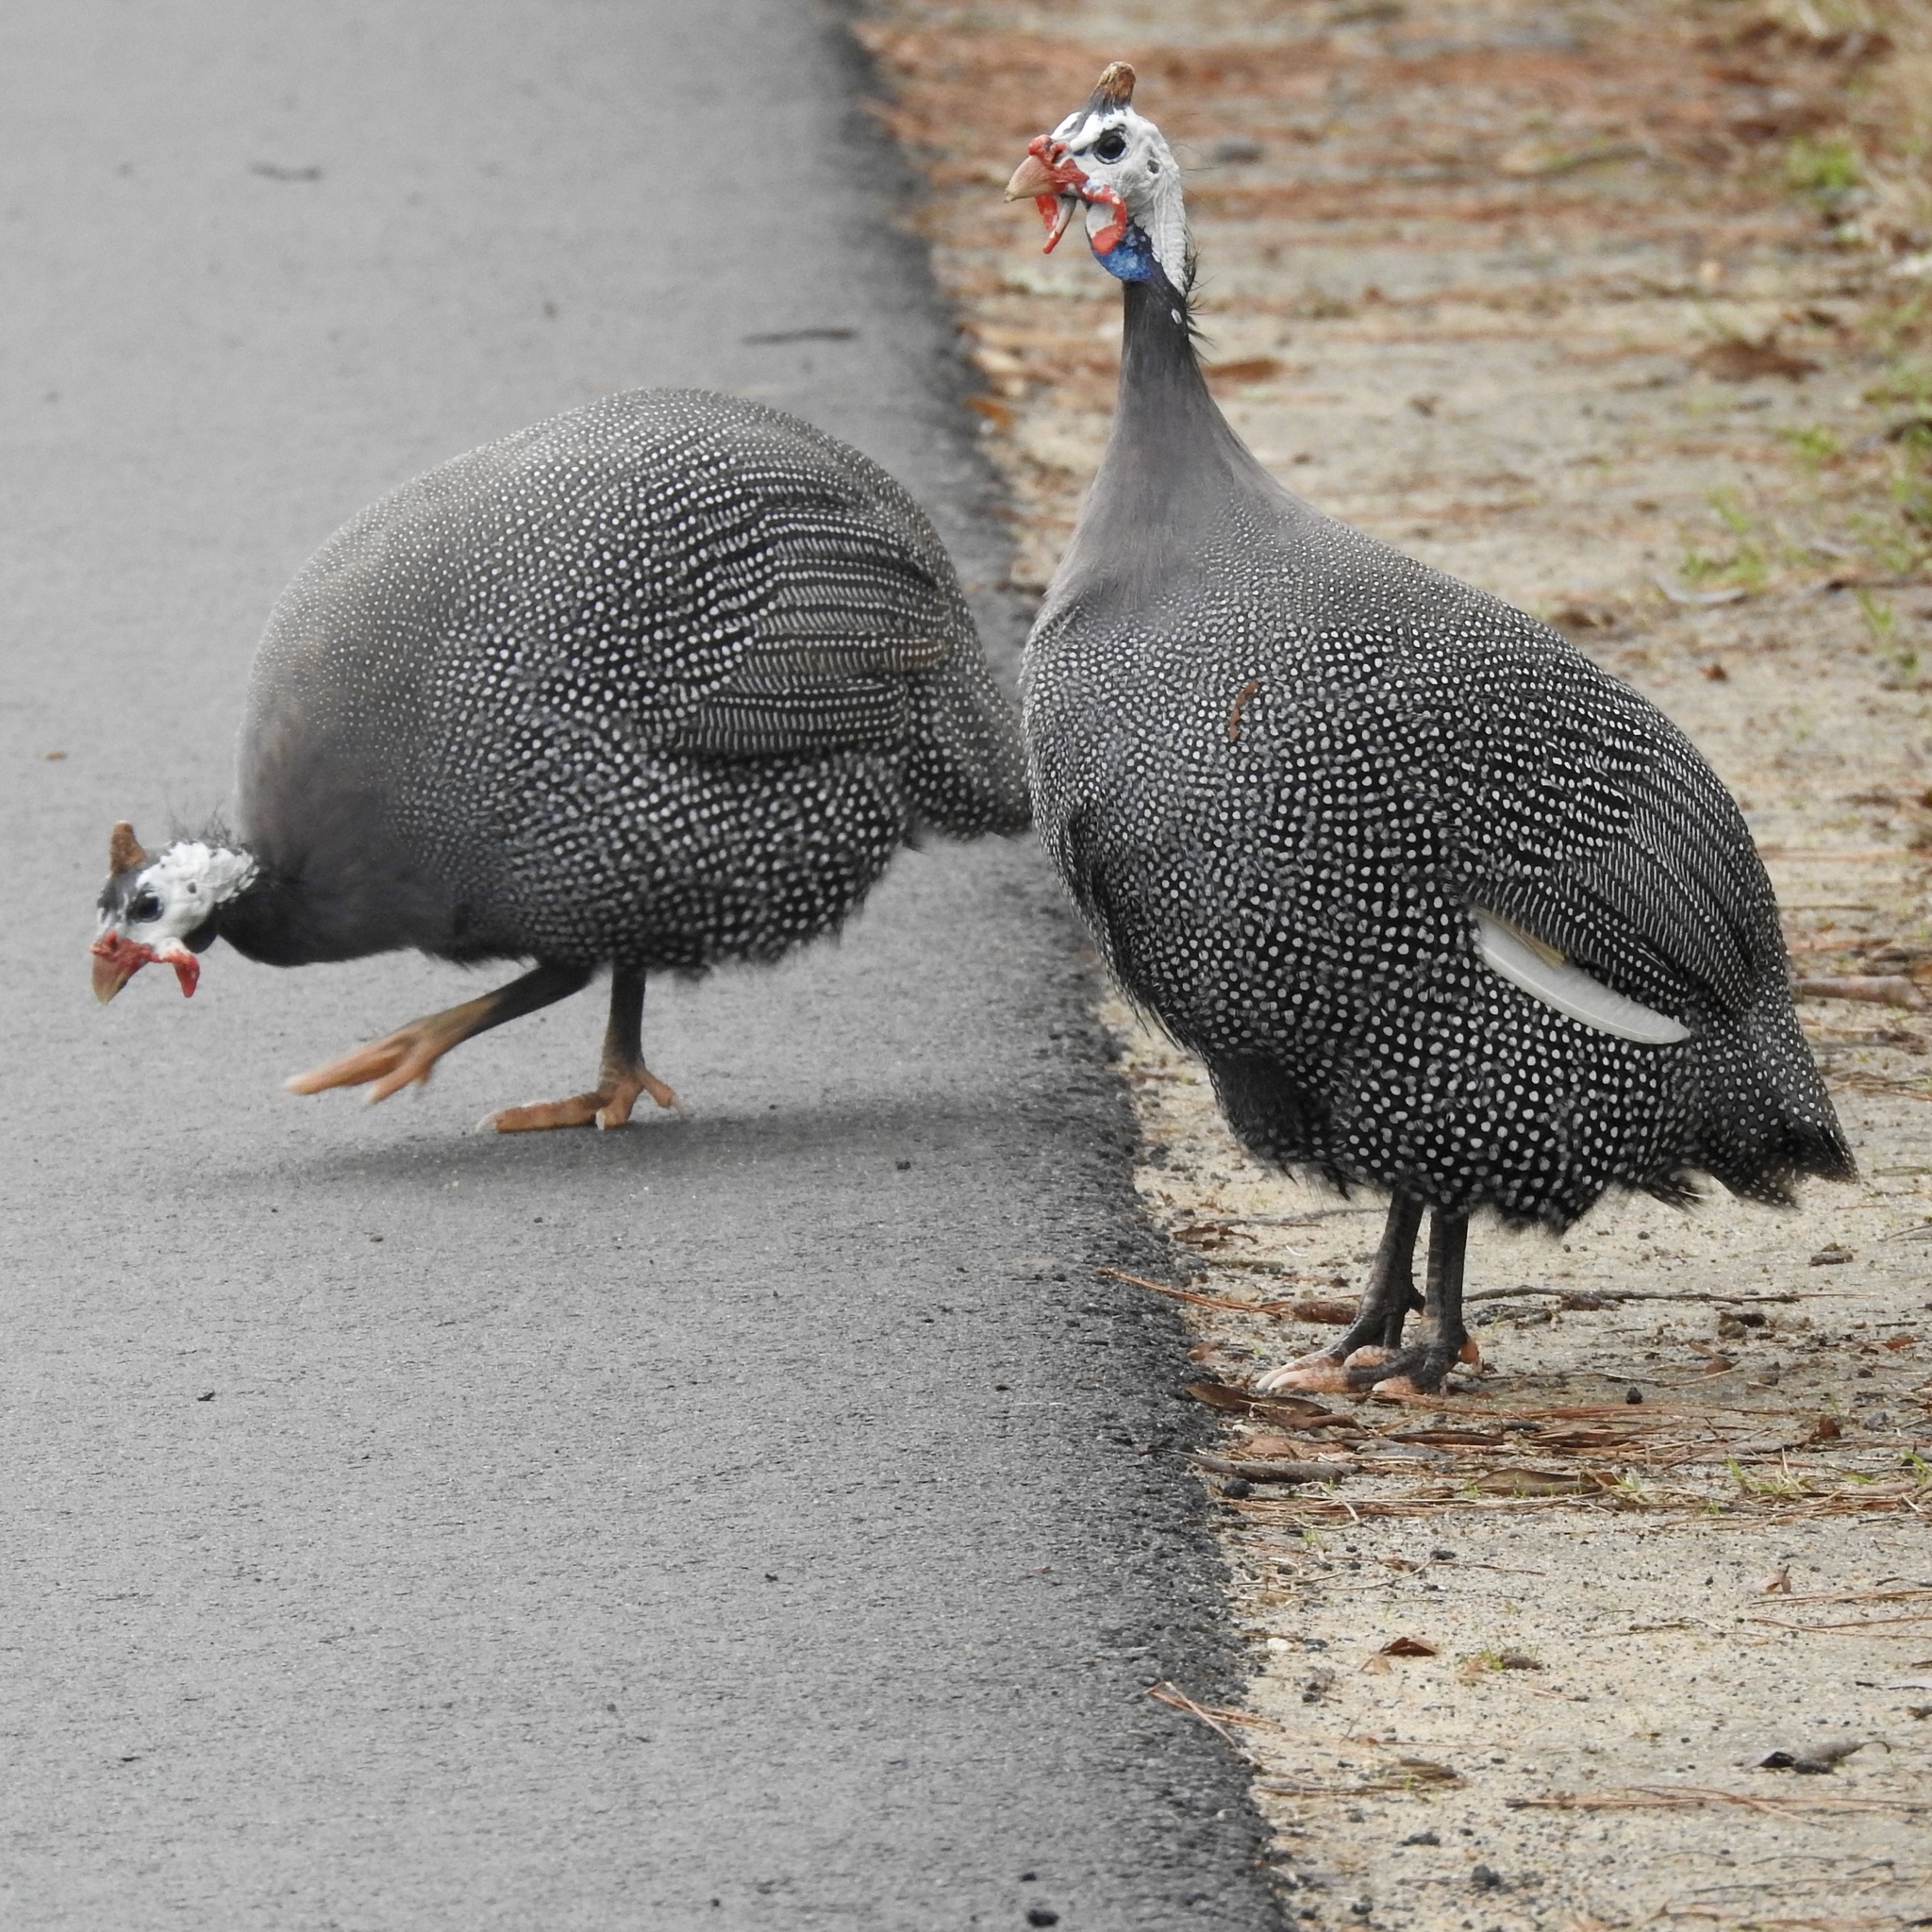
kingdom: Animalia
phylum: Chordata
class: Aves
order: Galliformes
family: Numididae
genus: Numida
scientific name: Numida meleagris
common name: Helmeted guineafowl
